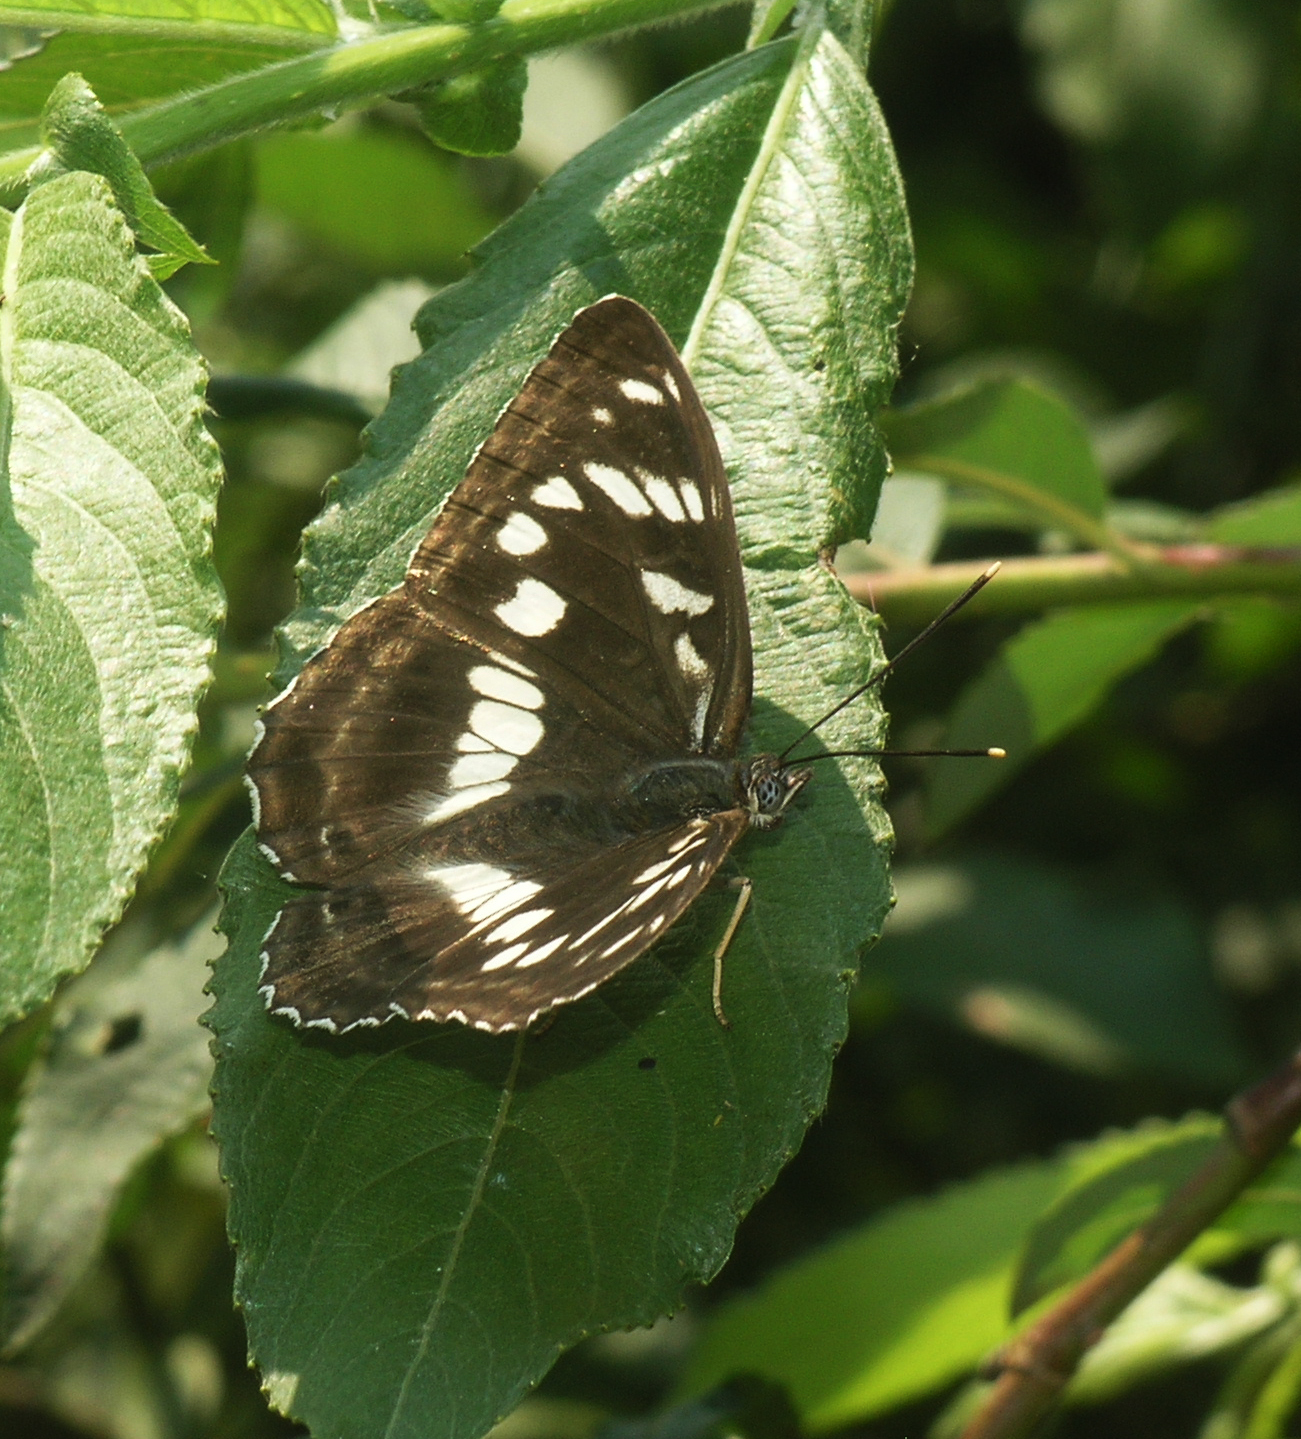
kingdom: Animalia
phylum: Arthropoda
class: Insecta
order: Lepidoptera
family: Nymphalidae
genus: Limenitis
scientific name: Limenitis amphyssa
